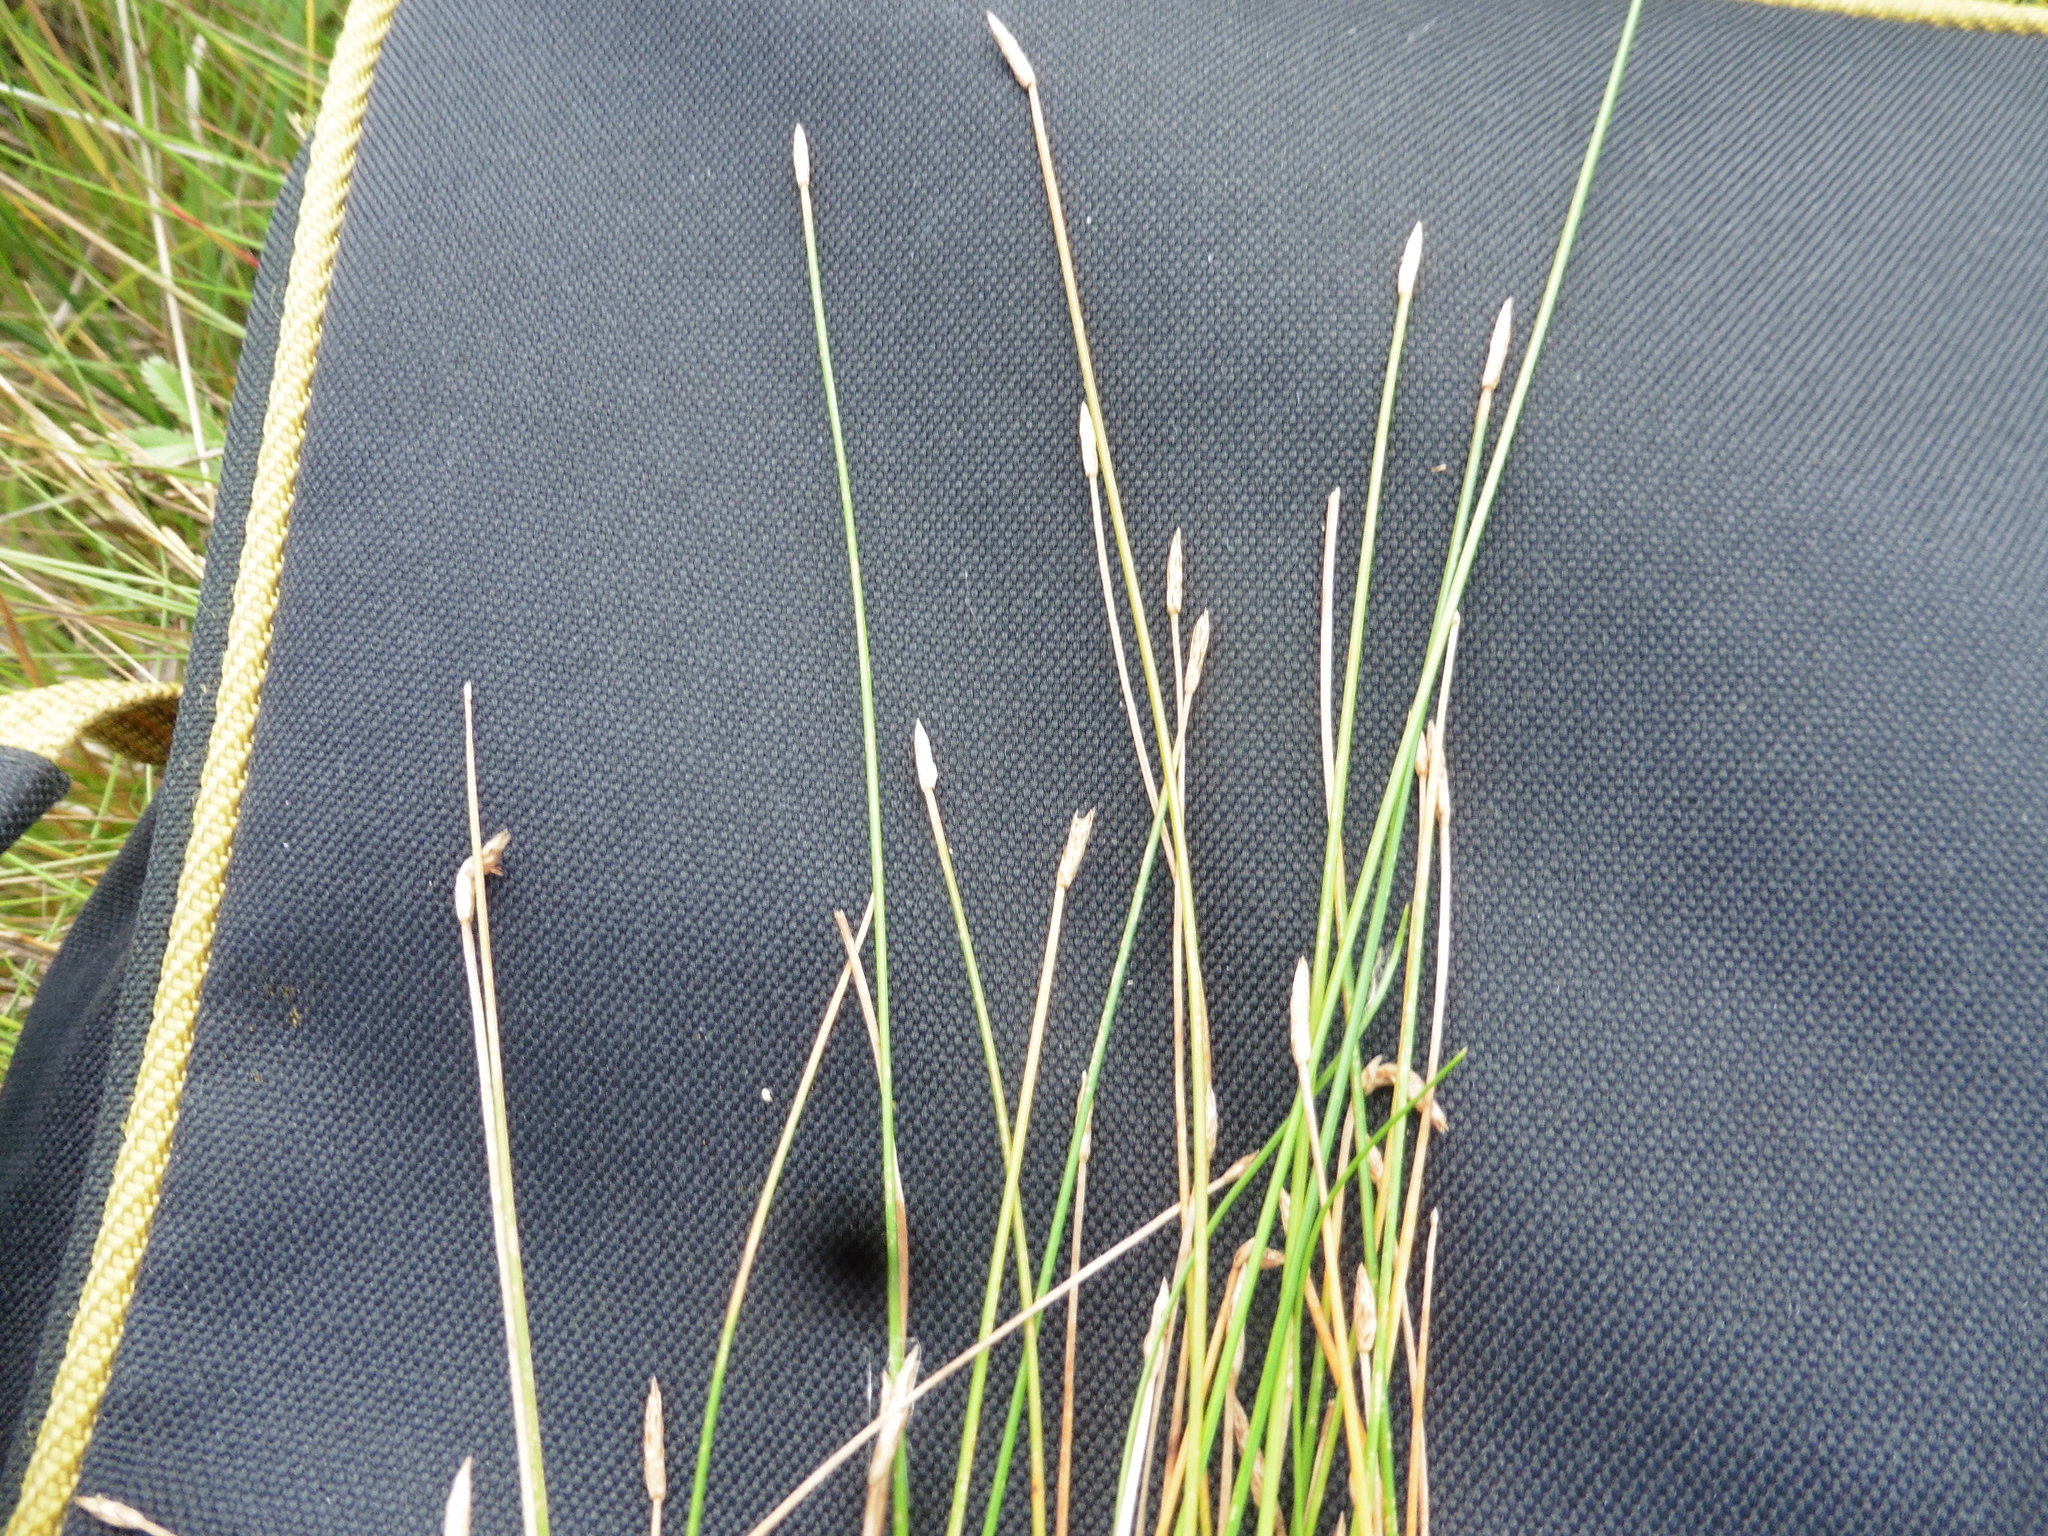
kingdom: Plantae
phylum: Tracheophyta
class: Liliopsida
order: Poales
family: Cyperaceae
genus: Eleocharis
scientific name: Eleocharis palustris
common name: Common spike-rush
